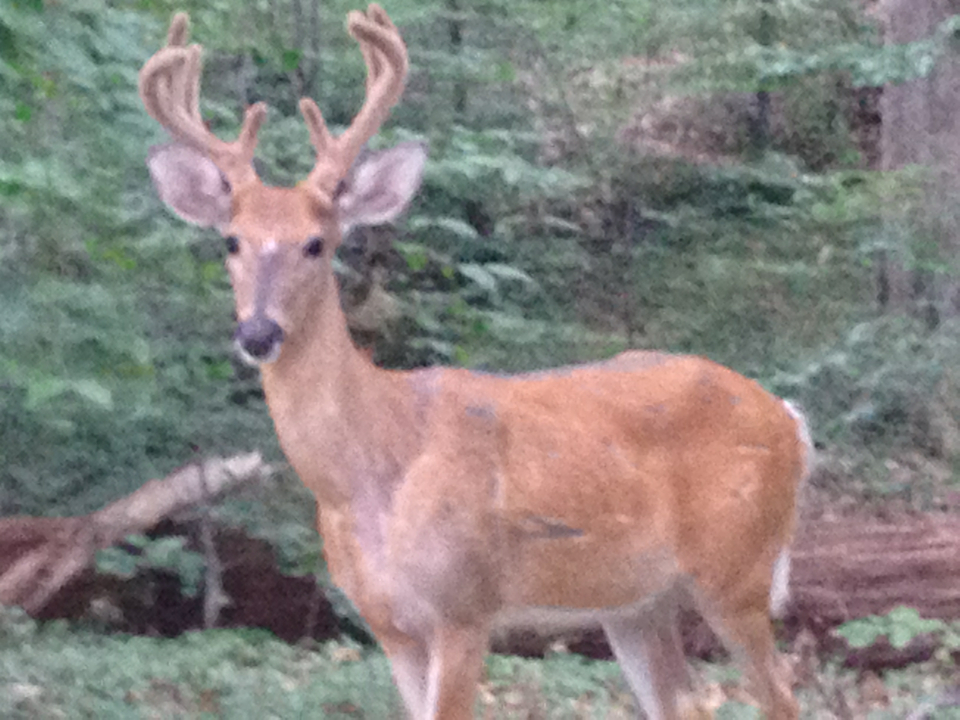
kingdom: Animalia
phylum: Chordata
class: Mammalia
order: Artiodactyla
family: Cervidae
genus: Odocoileus
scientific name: Odocoileus virginianus
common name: White-tailed deer
